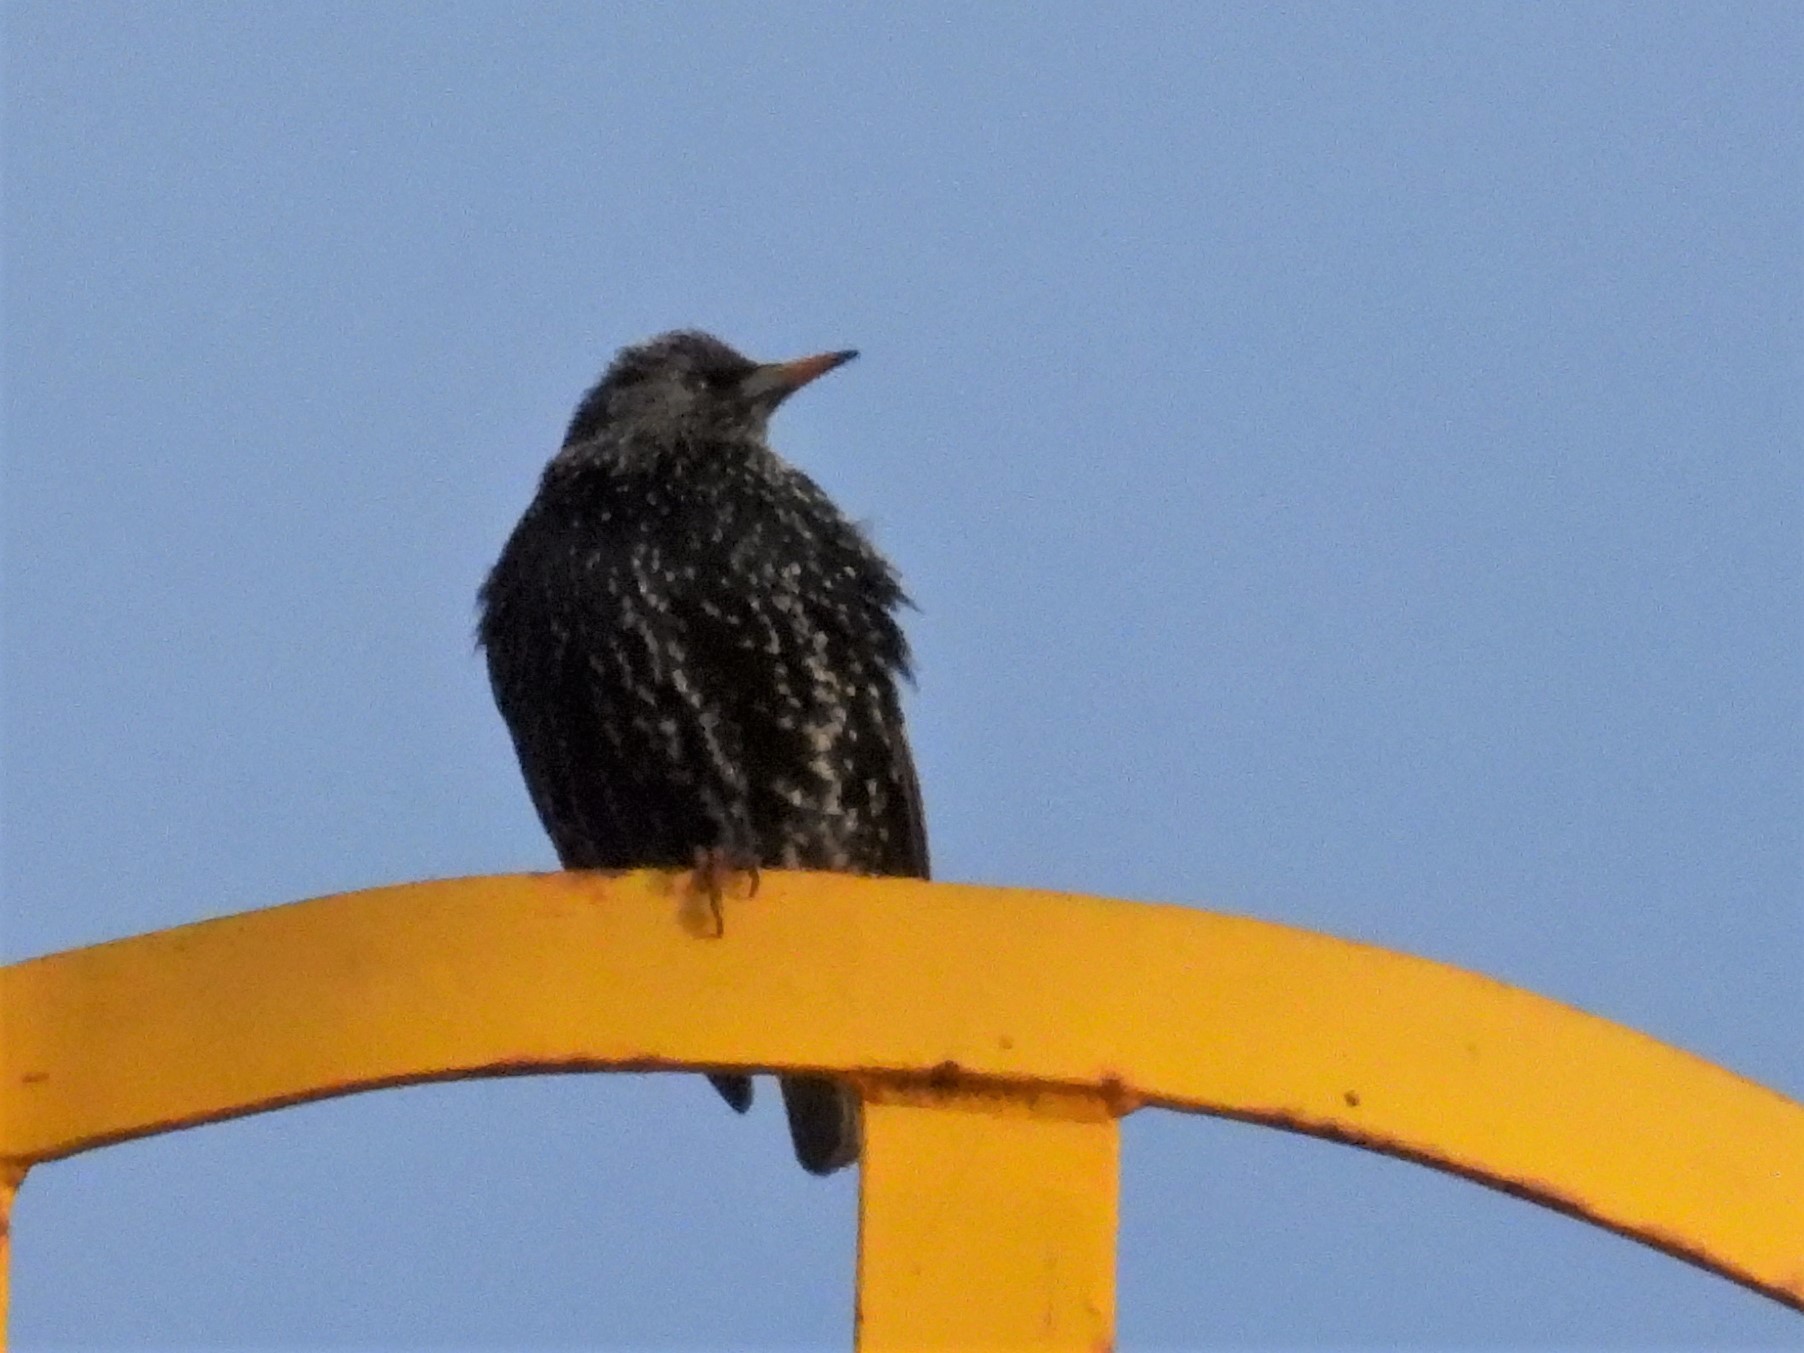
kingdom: Animalia
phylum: Chordata
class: Aves
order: Passeriformes
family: Sturnidae
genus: Sturnus
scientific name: Sturnus vulgaris
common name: Common starling
